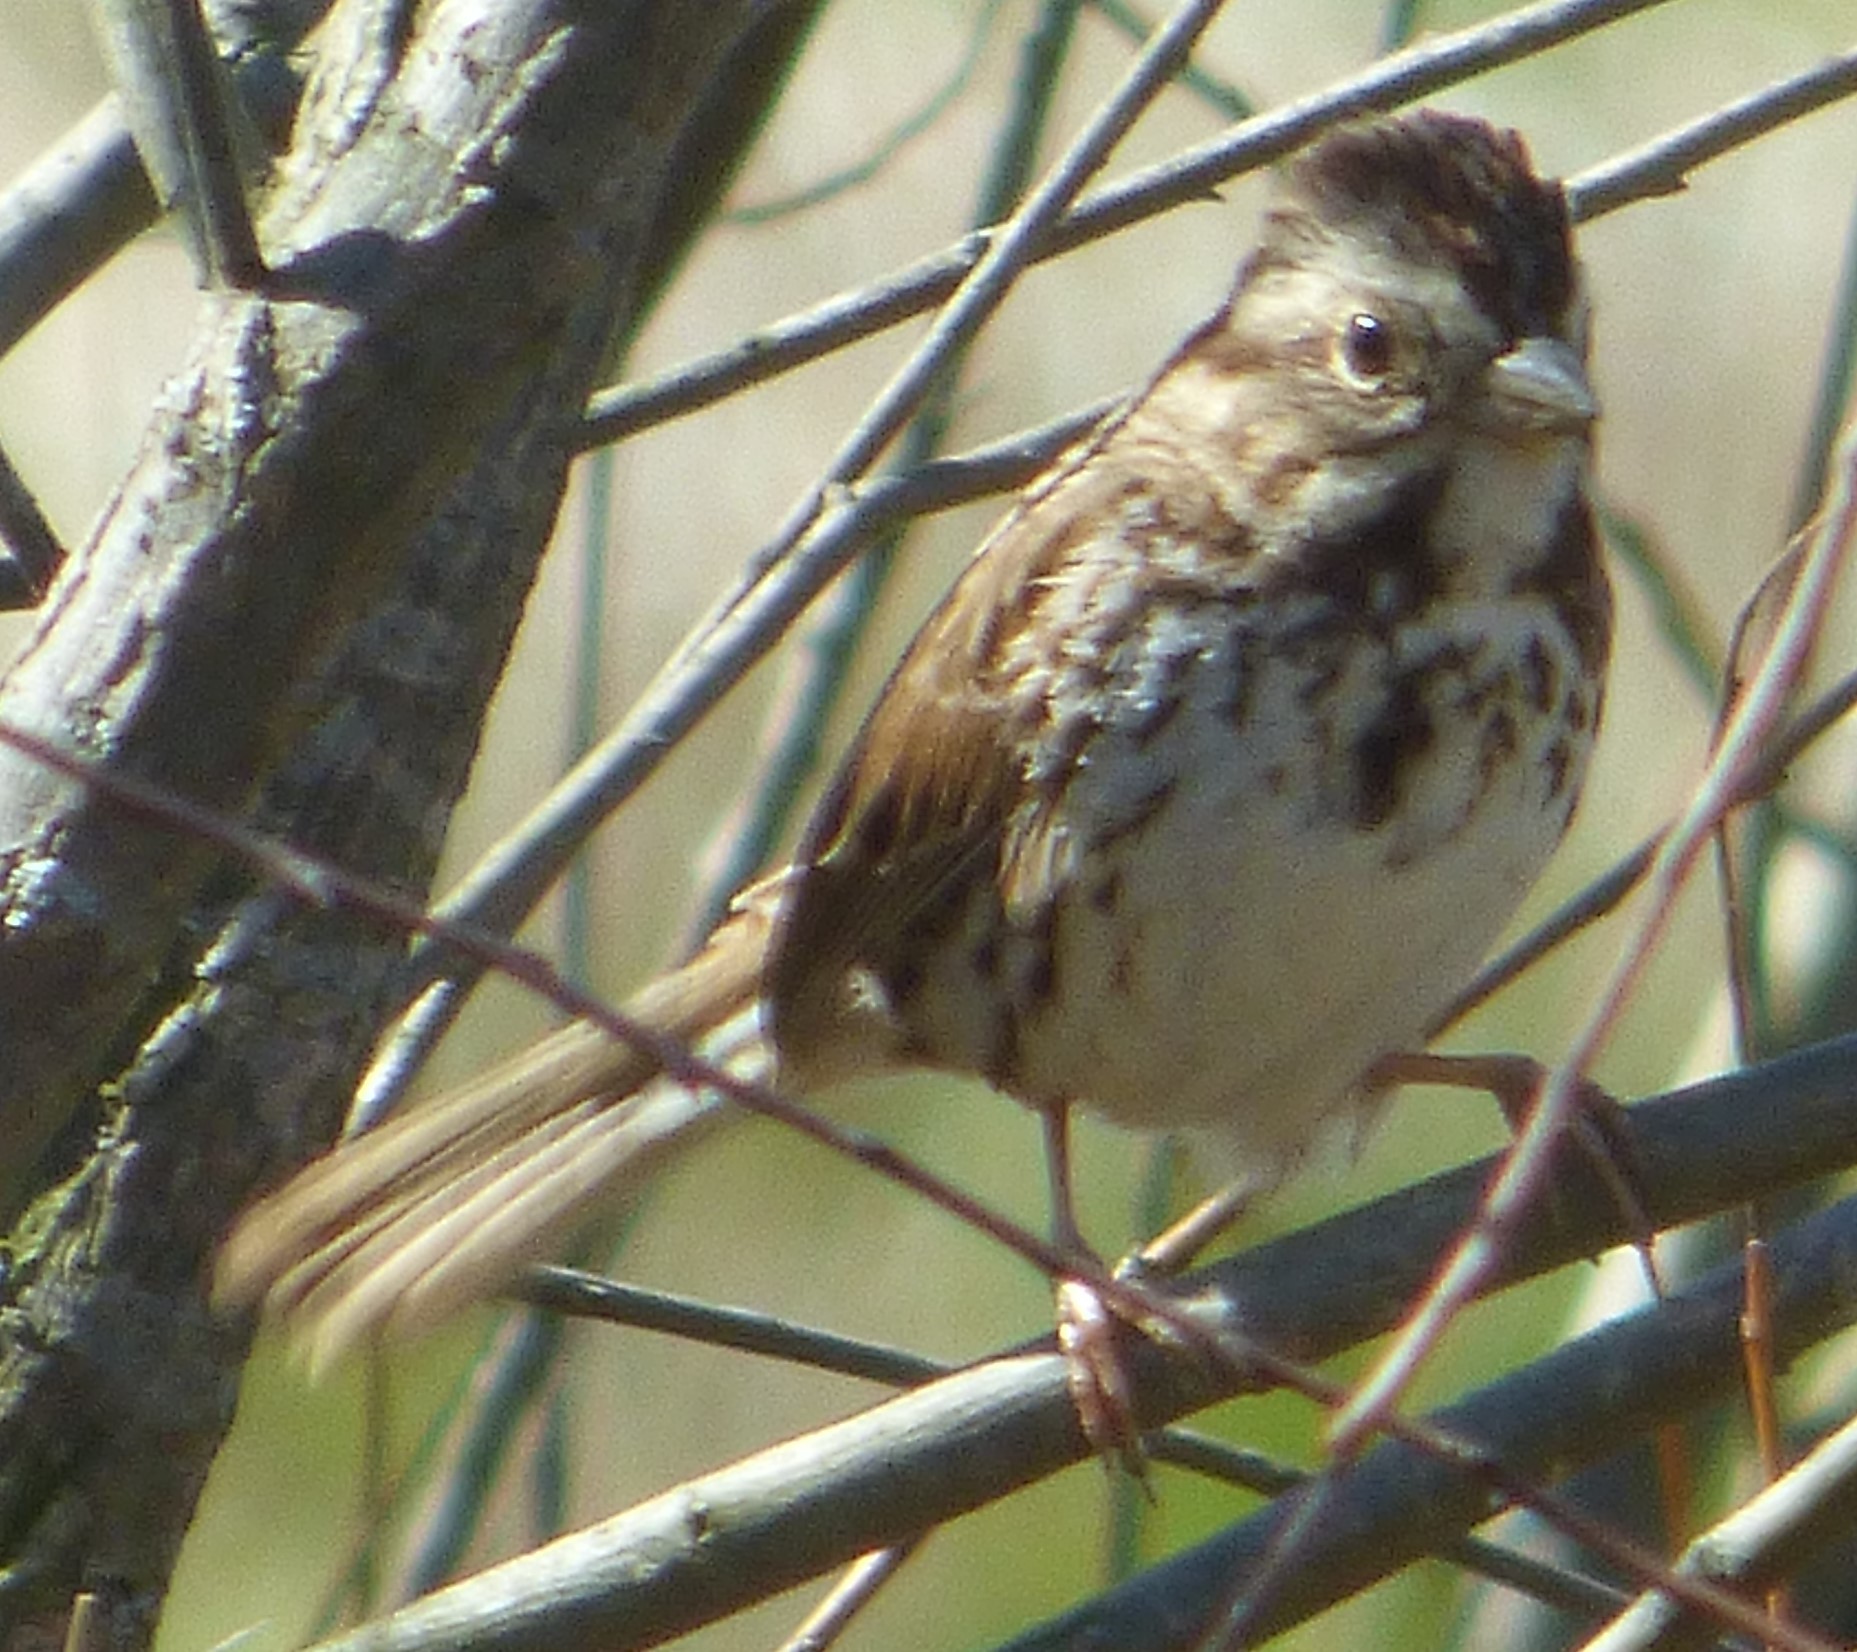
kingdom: Animalia
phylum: Chordata
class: Aves
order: Passeriformes
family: Passerellidae
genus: Melospiza
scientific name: Melospiza melodia
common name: Song sparrow
